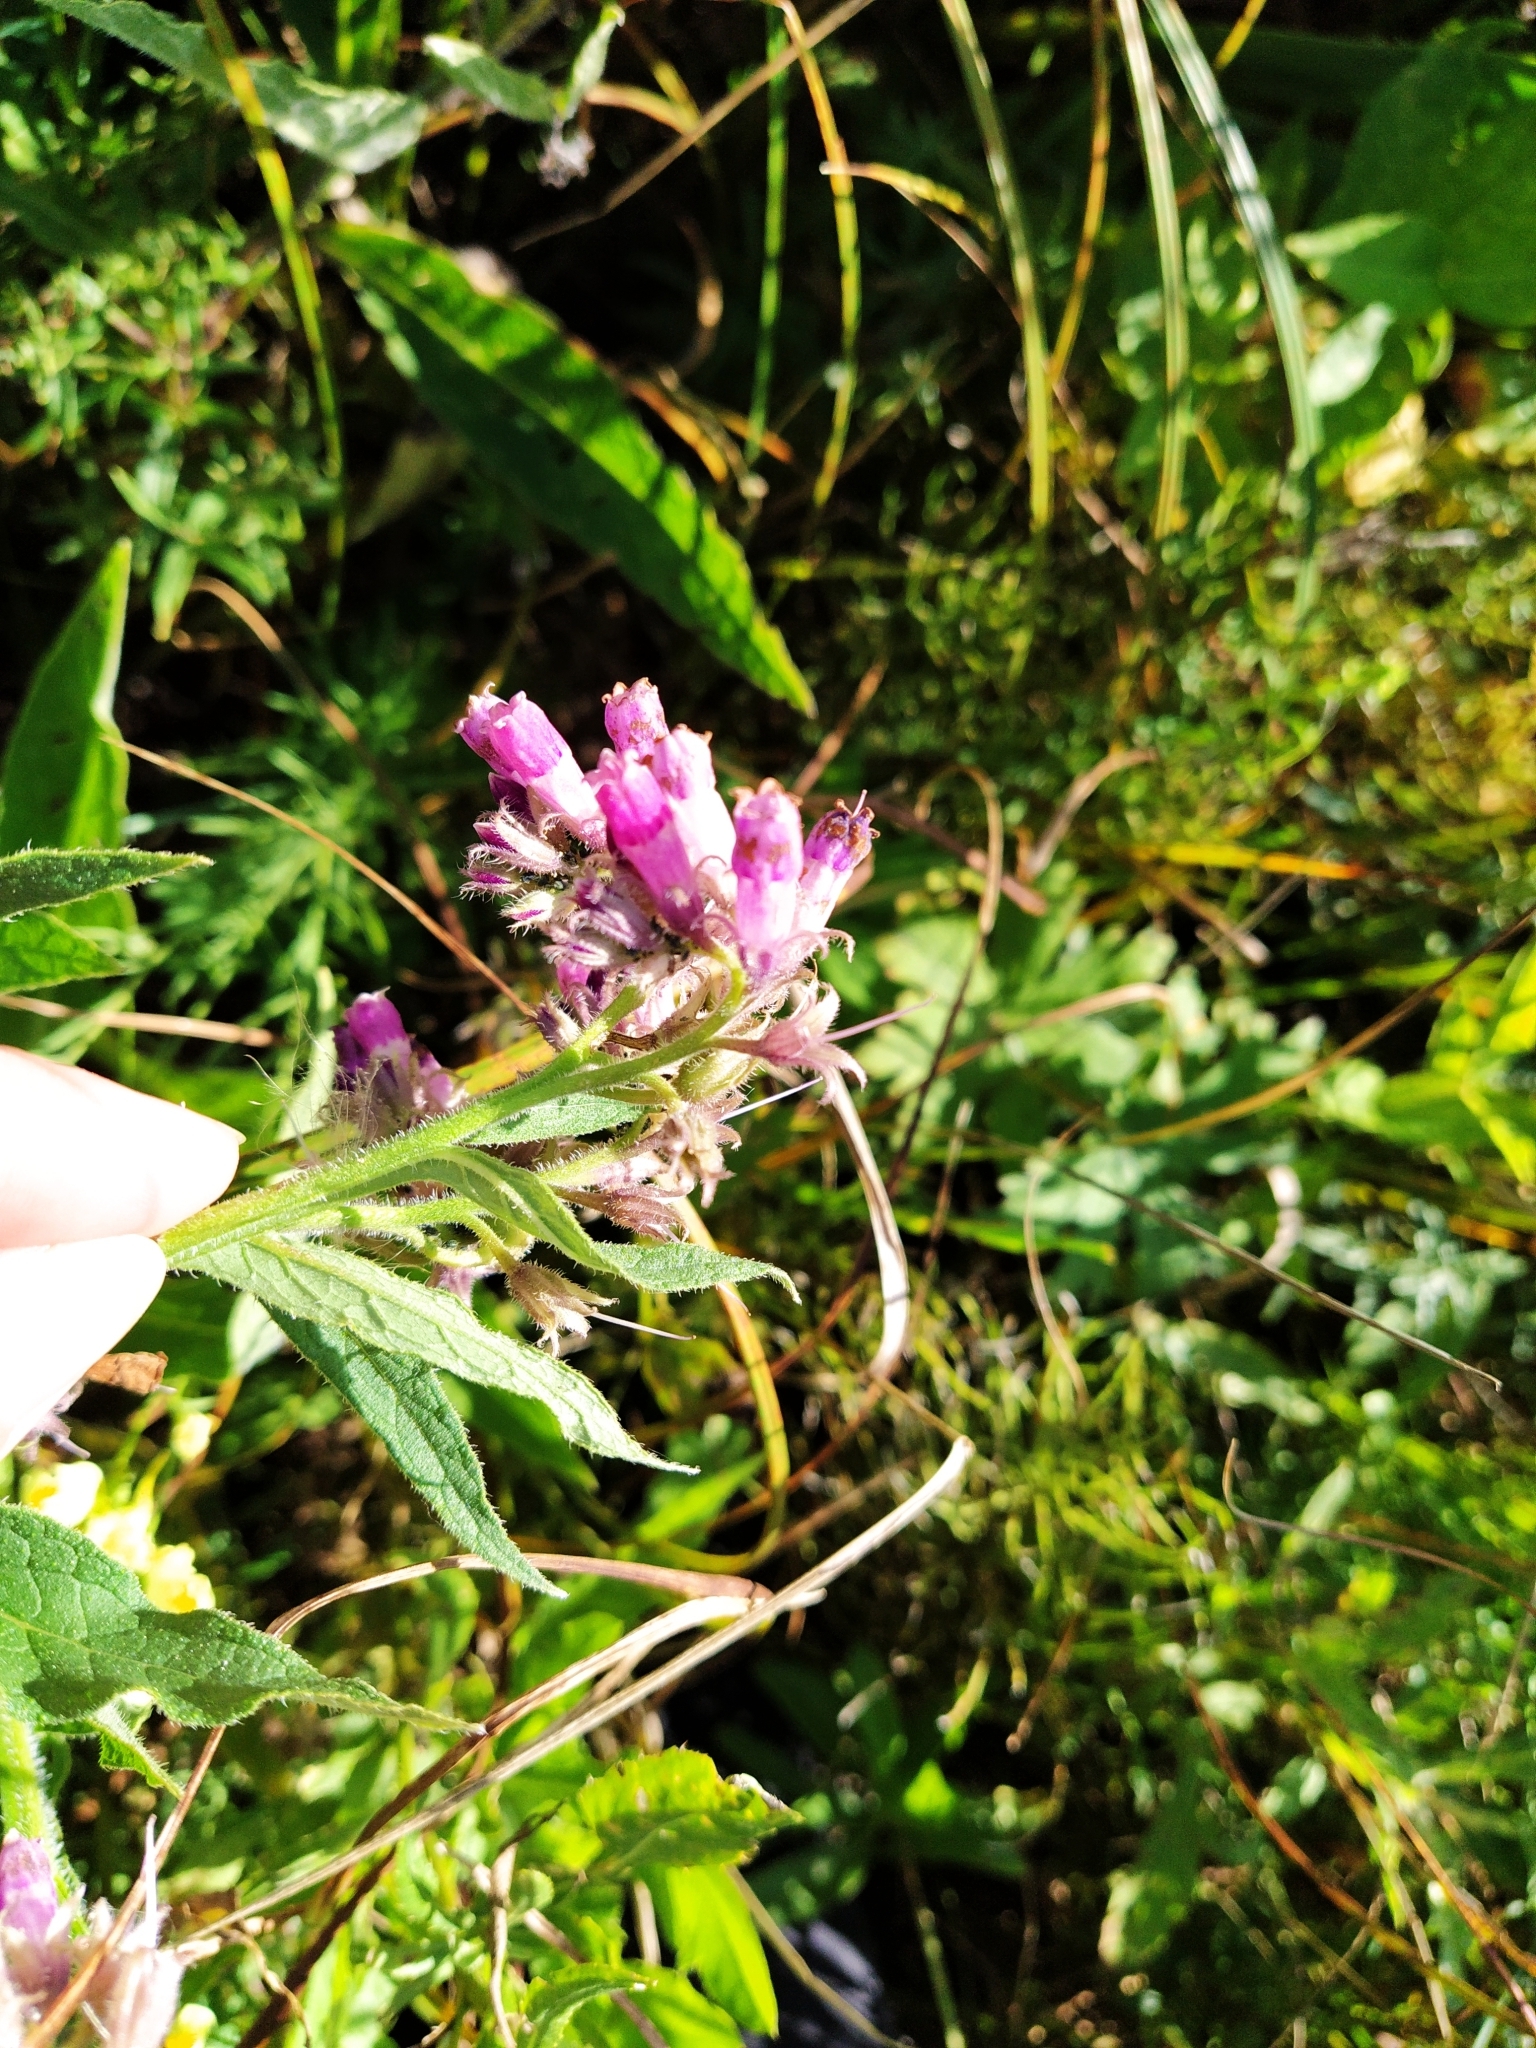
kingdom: Plantae
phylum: Tracheophyta
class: Magnoliopsida
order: Boraginales
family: Boraginaceae
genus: Symphytum
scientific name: Symphytum officinale
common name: Common comfrey
